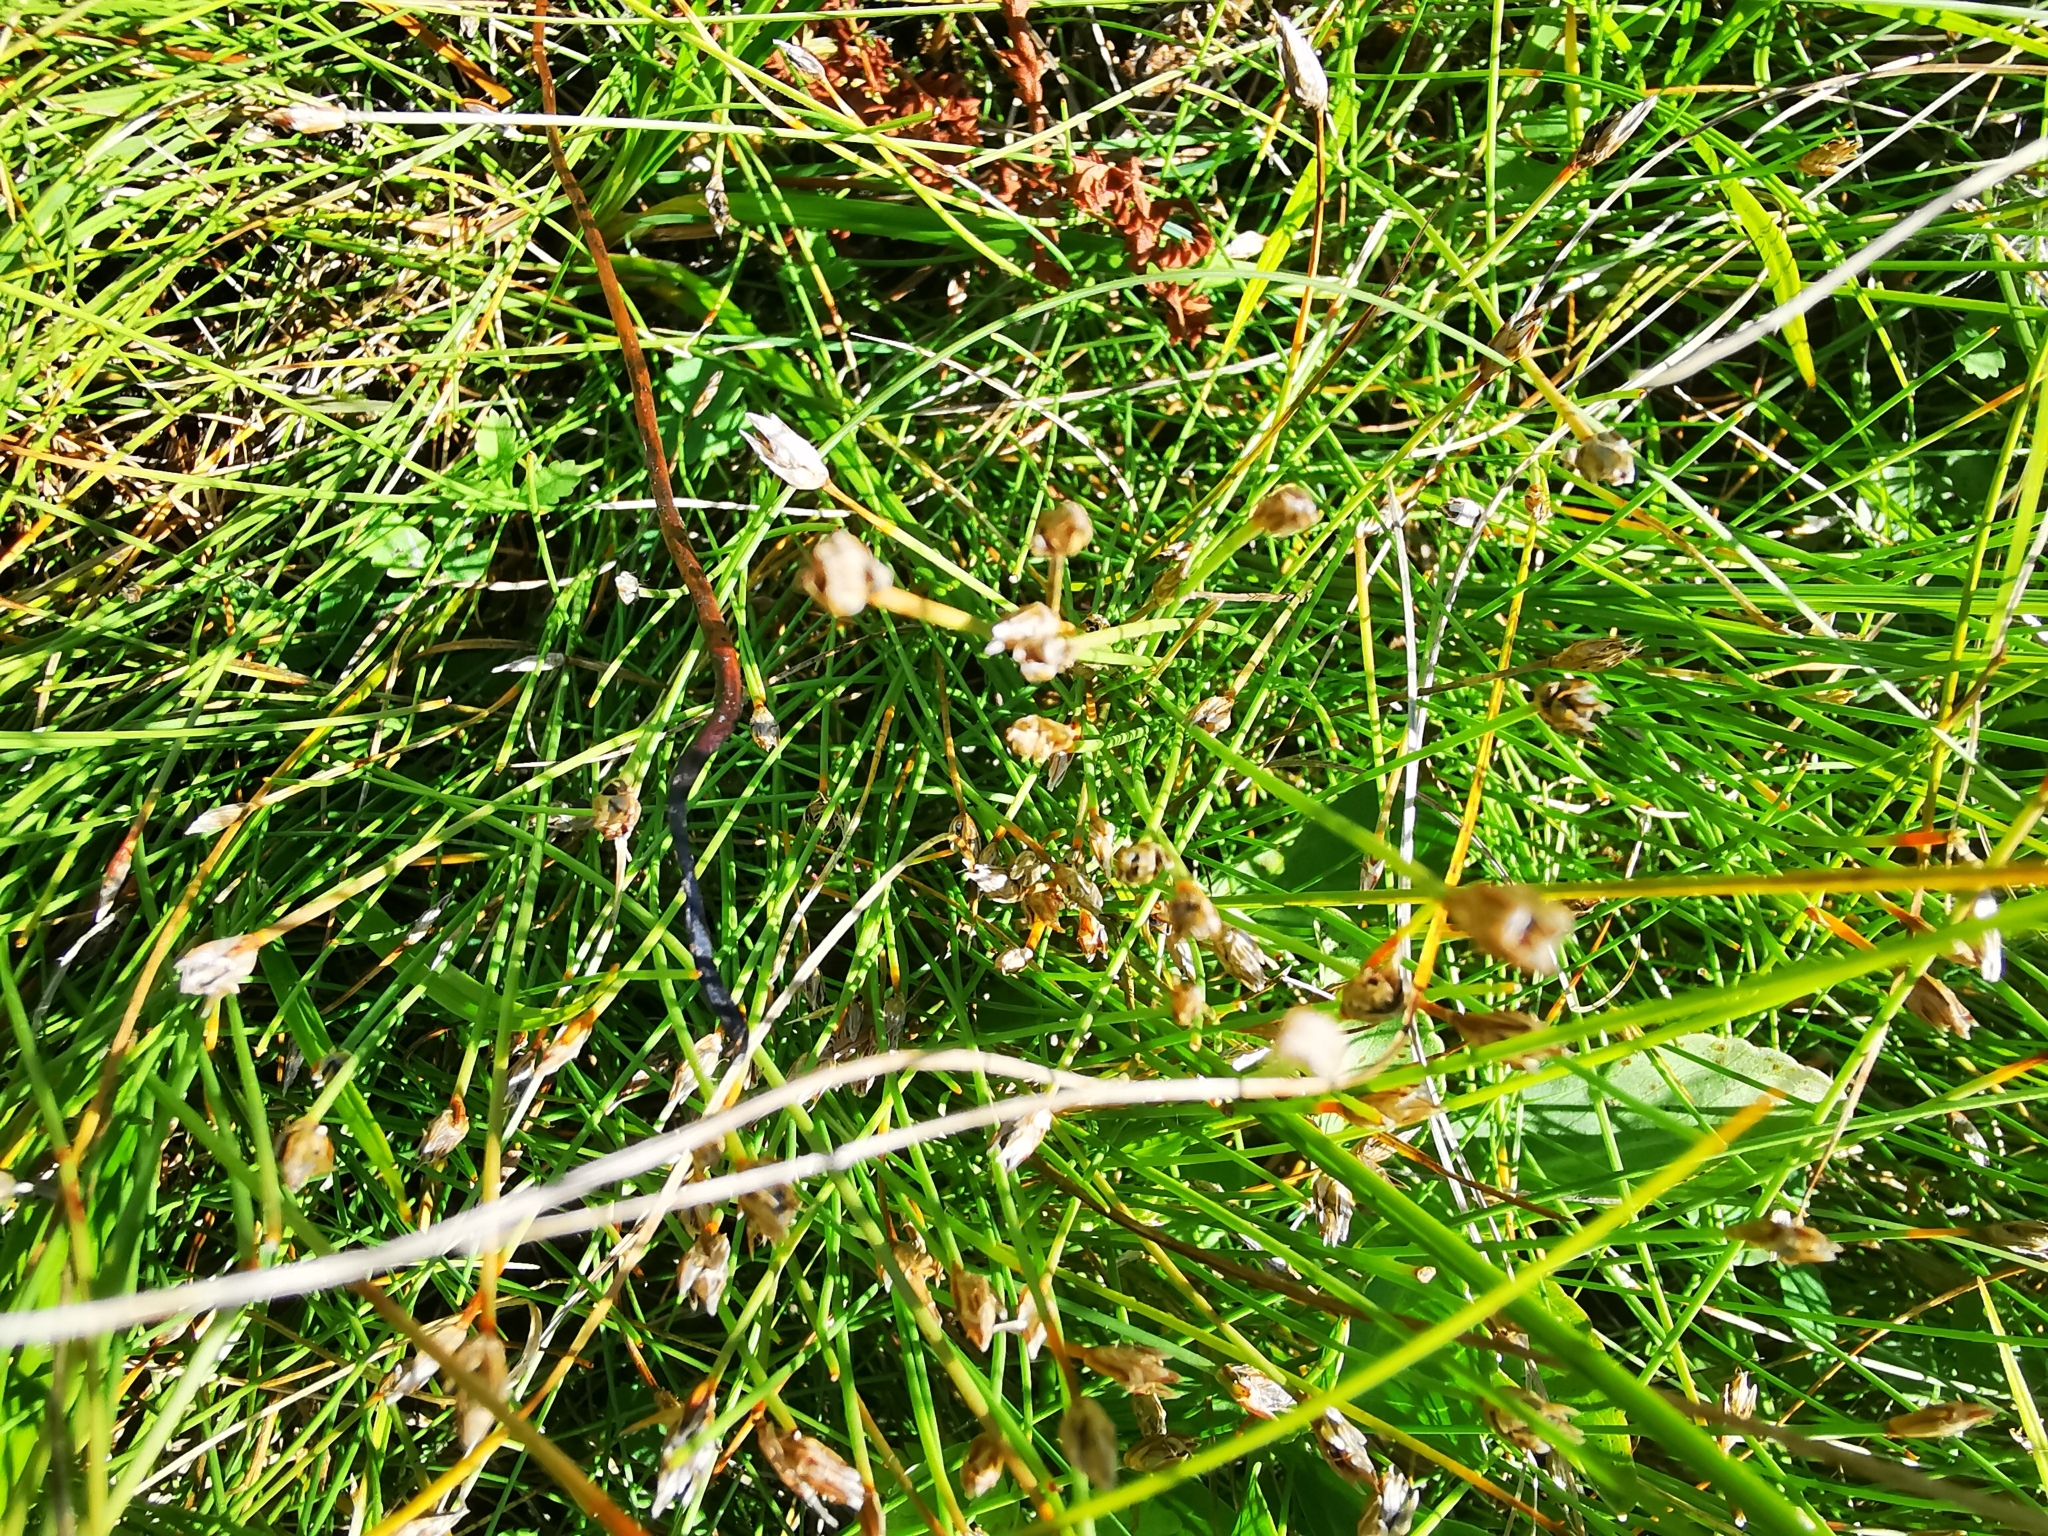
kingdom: Plantae
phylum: Tracheophyta
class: Liliopsida
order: Poales
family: Cyperaceae
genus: Eleocharis
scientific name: Eleocharis quinqueflora
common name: Few-flowered spike-rush
